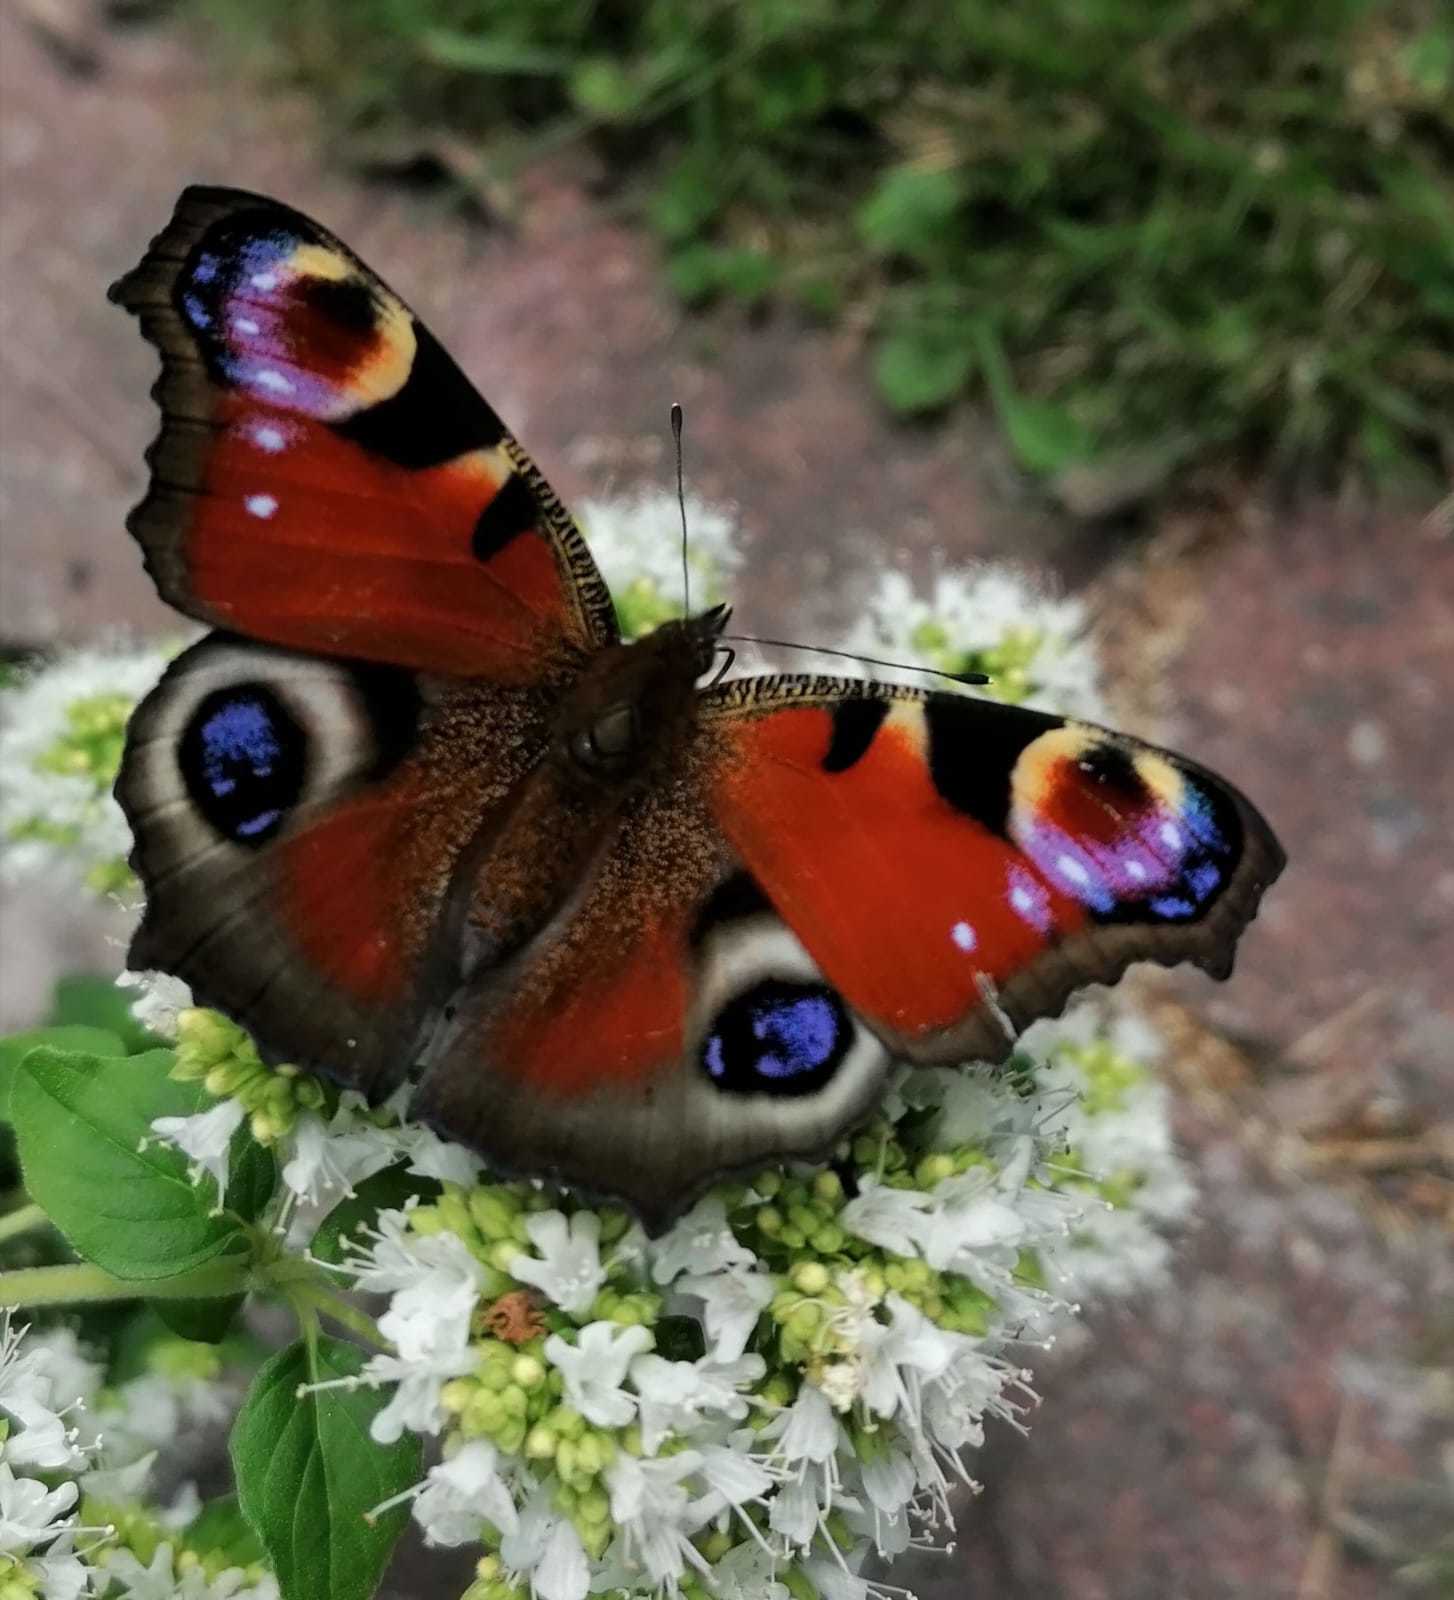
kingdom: Animalia
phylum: Arthropoda
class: Insecta
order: Lepidoptera
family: Nymphalidae
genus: Aglais
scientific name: Aglais io
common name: Peacock
